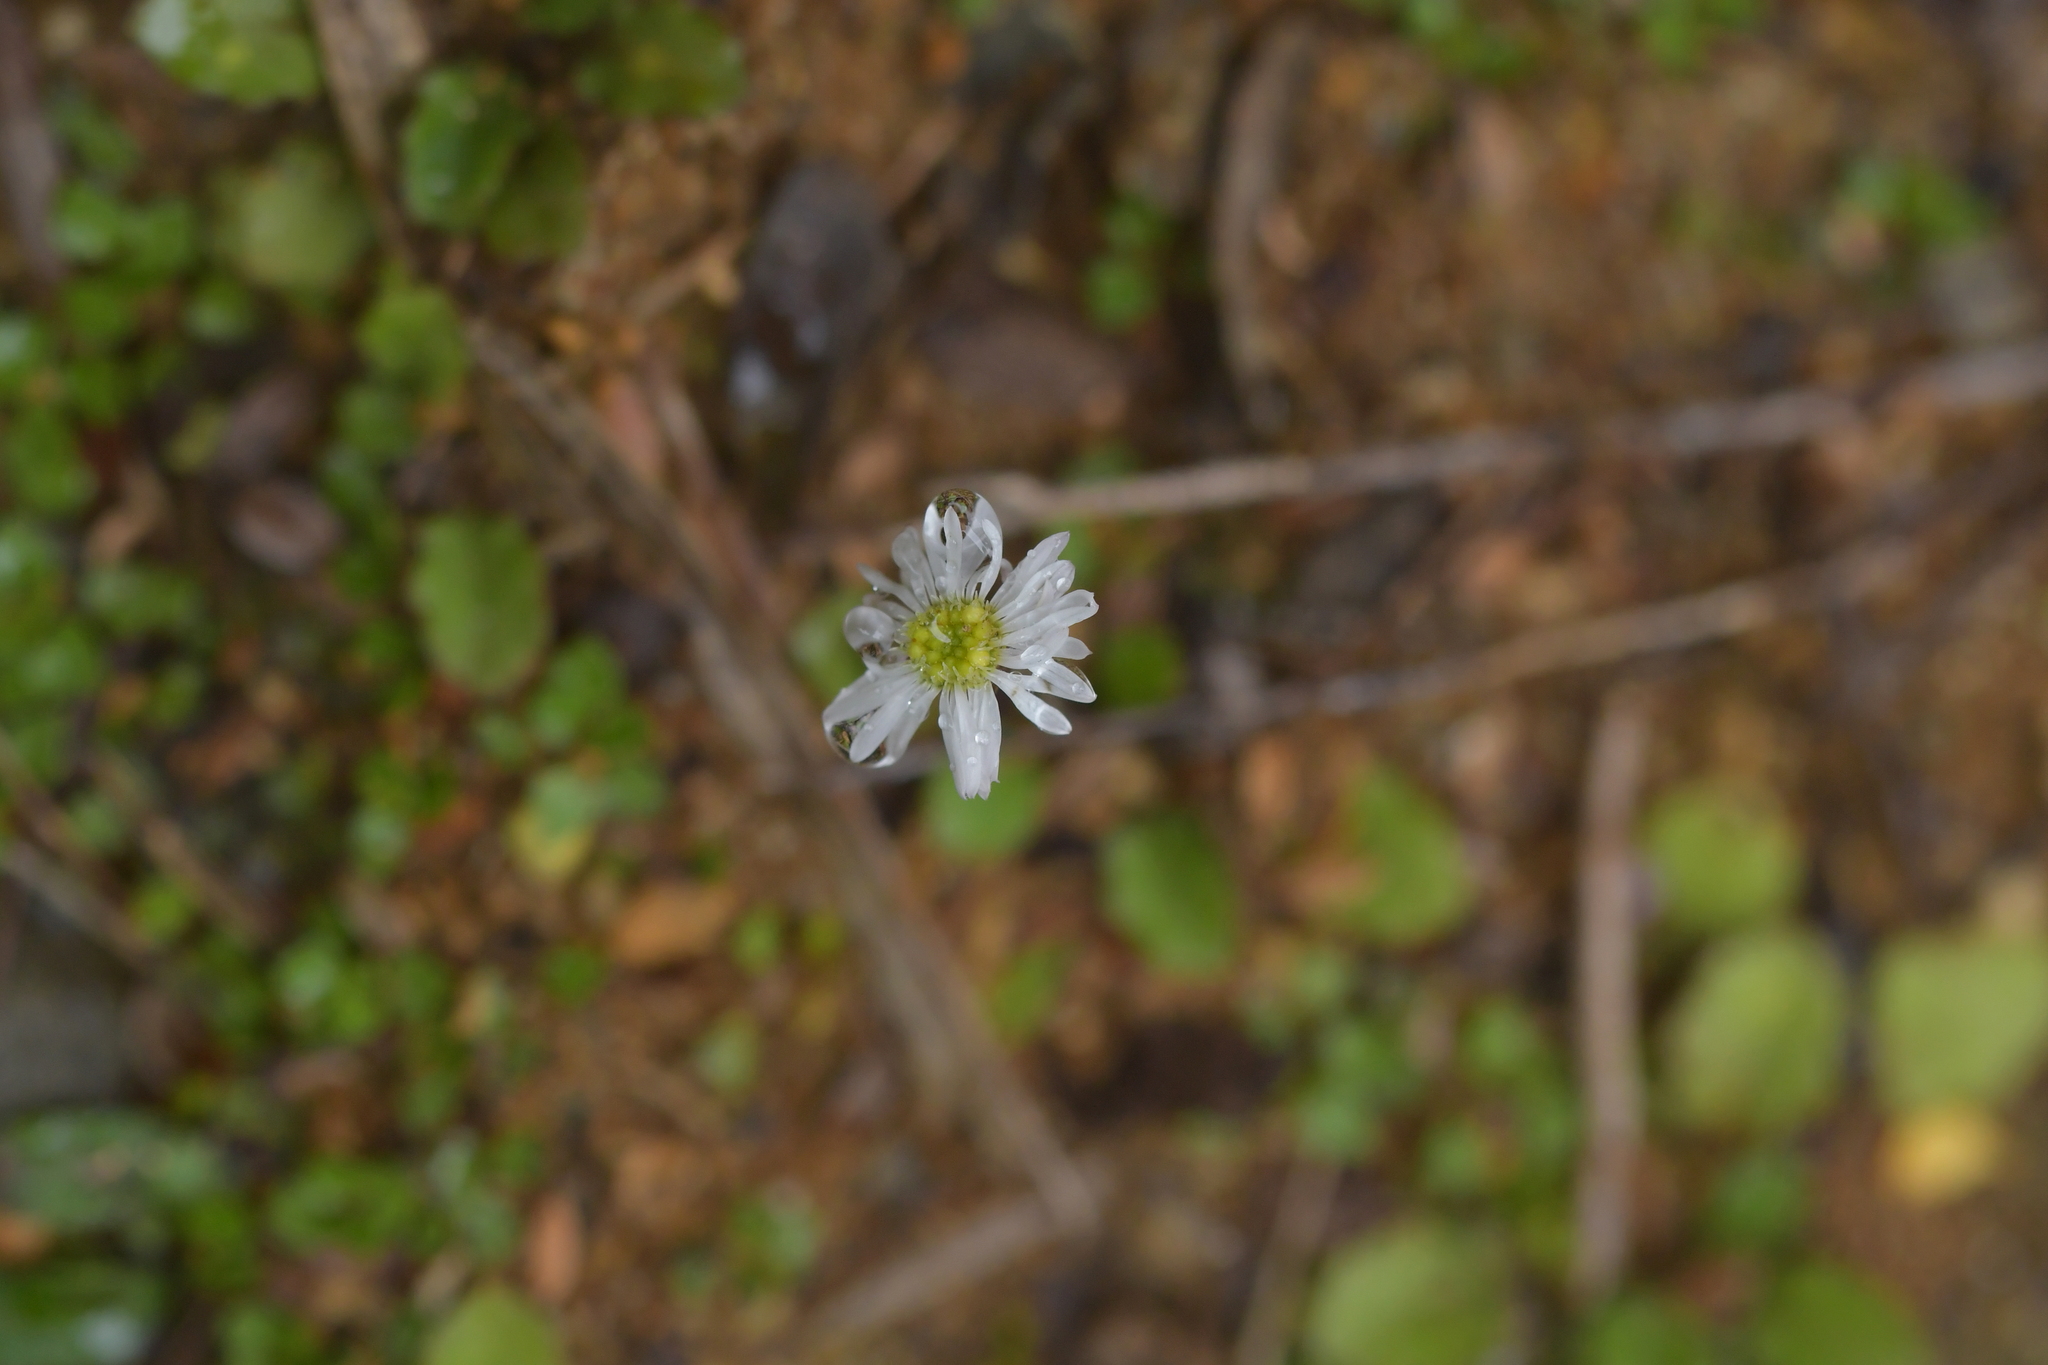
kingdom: Plantae
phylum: Tracheophyta
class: Magnoliopsida
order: Asterales
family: Asteraceae
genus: Lagenophora
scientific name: Lagenophora pumila
